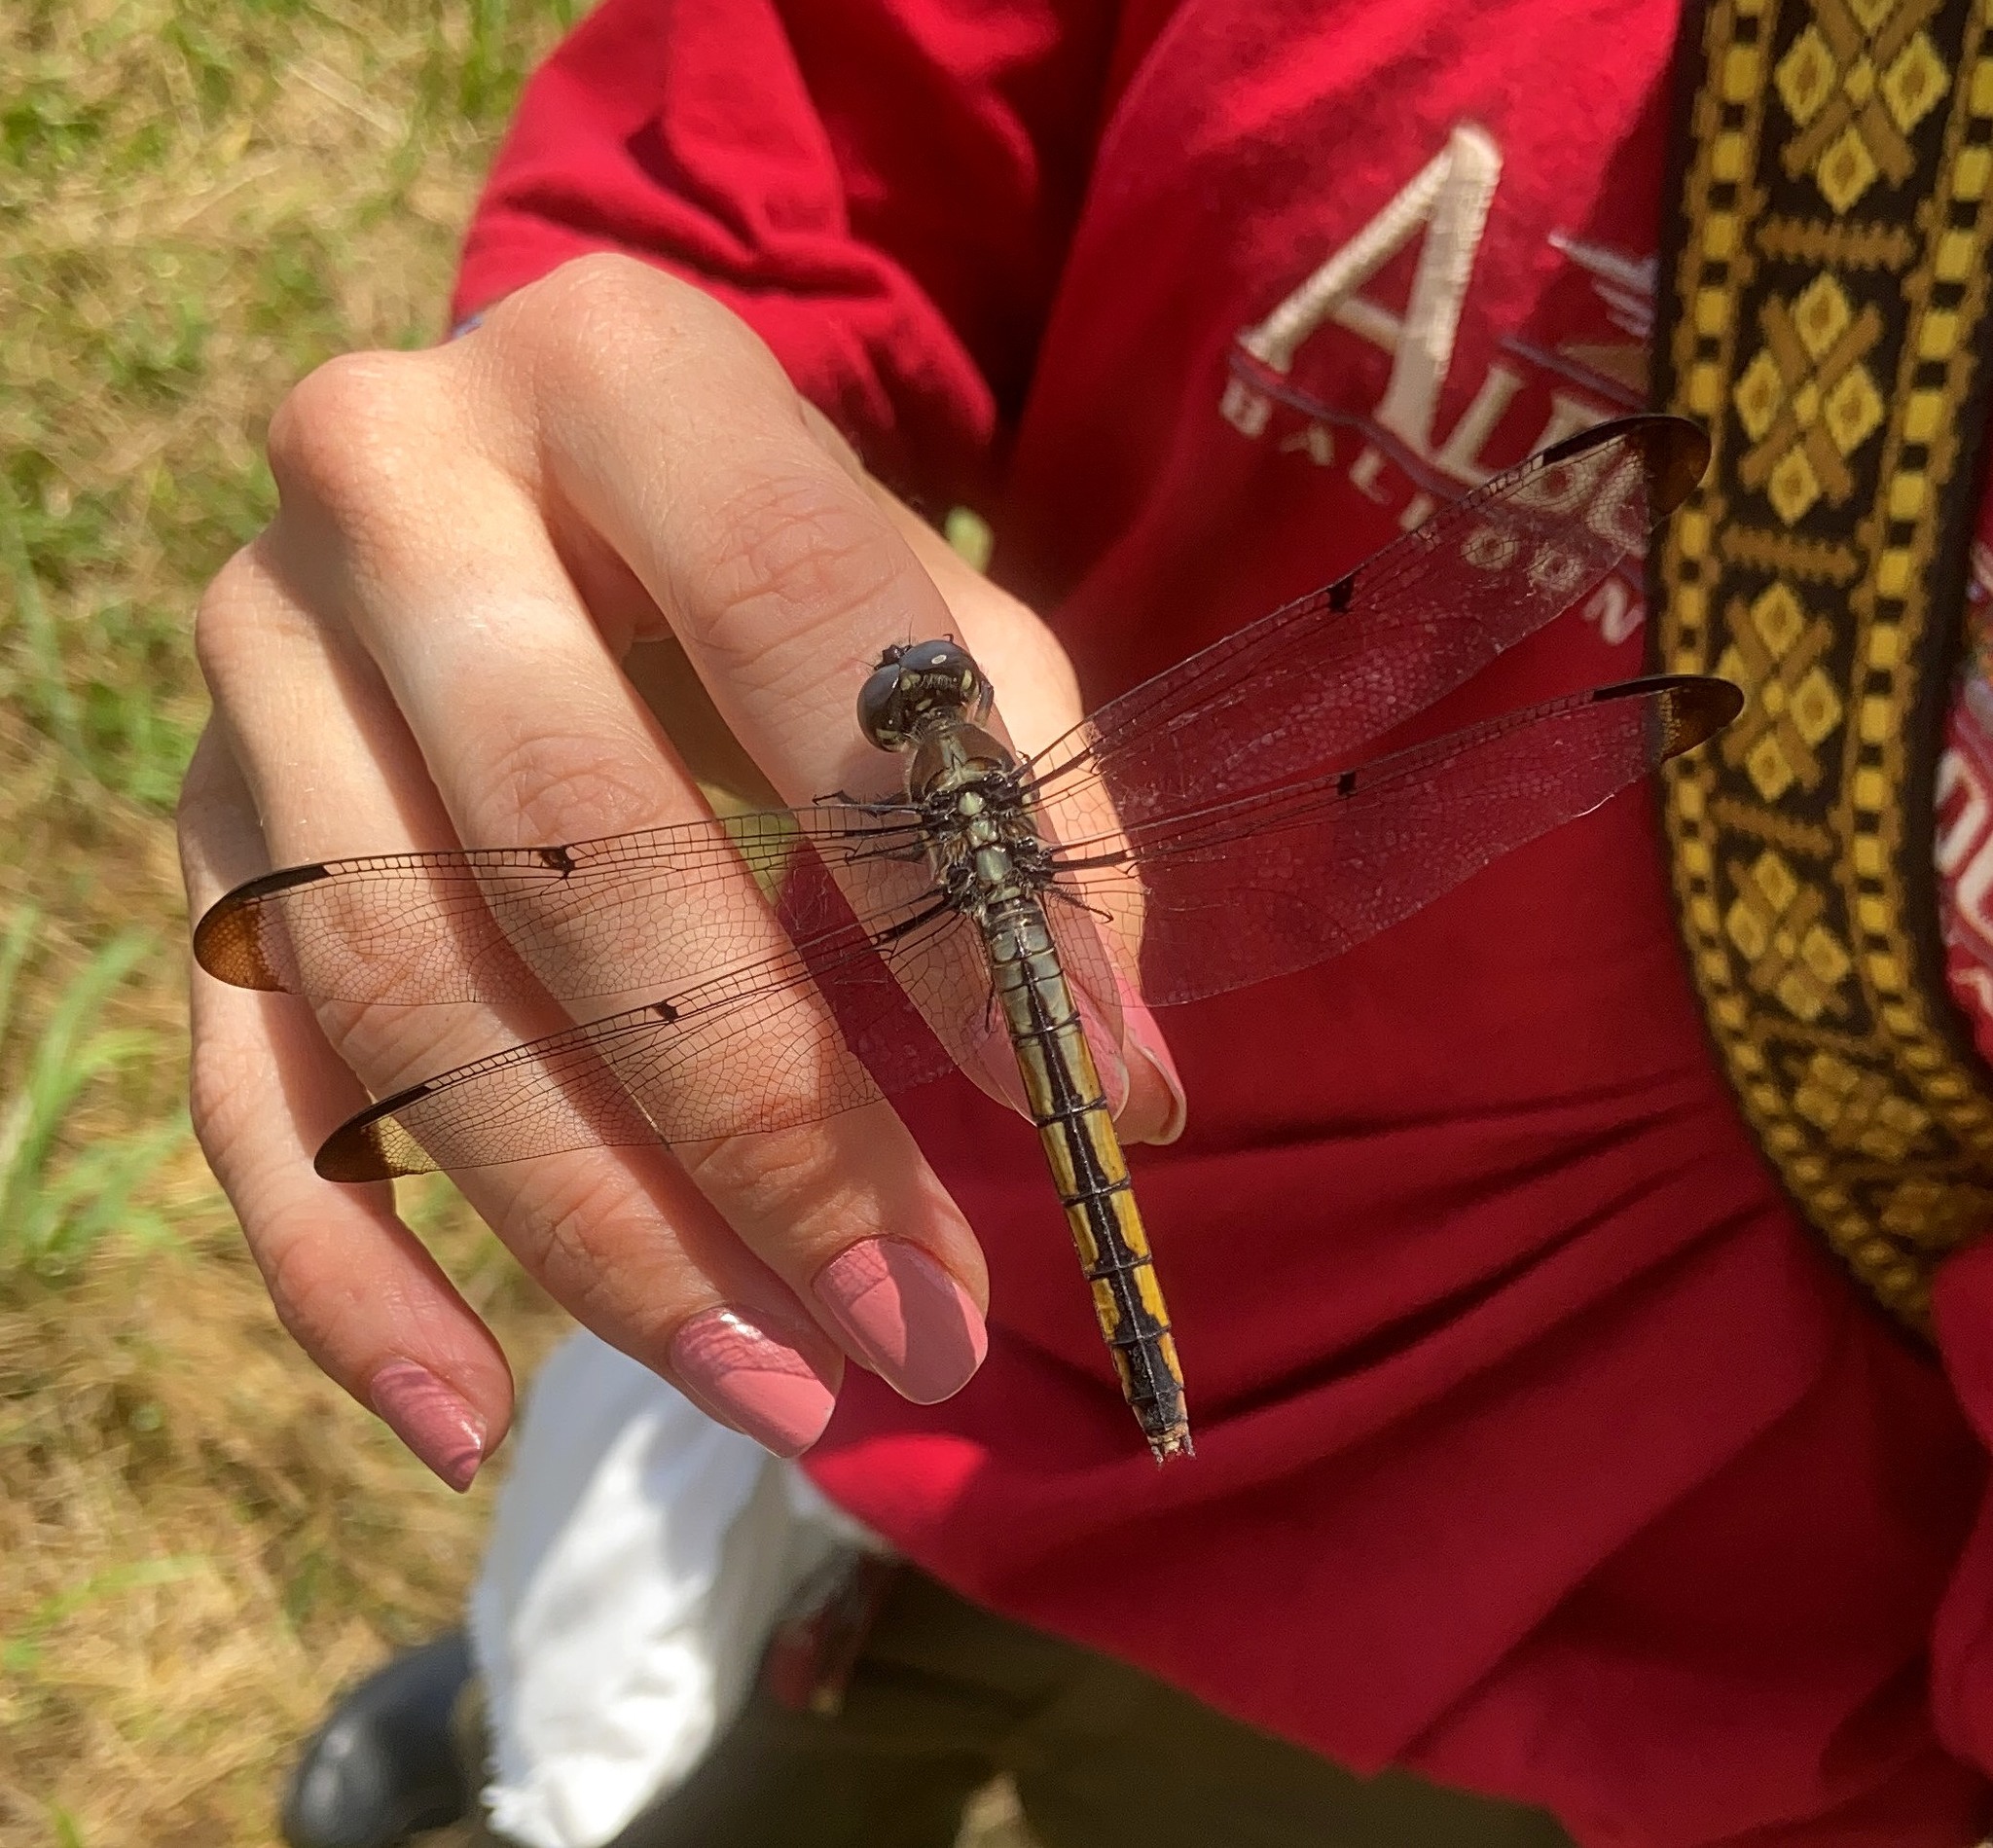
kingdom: Animalia
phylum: Arthropoda
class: Insecta
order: Odonata
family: Libellulidae
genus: Libellula
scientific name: Libellula vibrans
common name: Great blue skimmer
